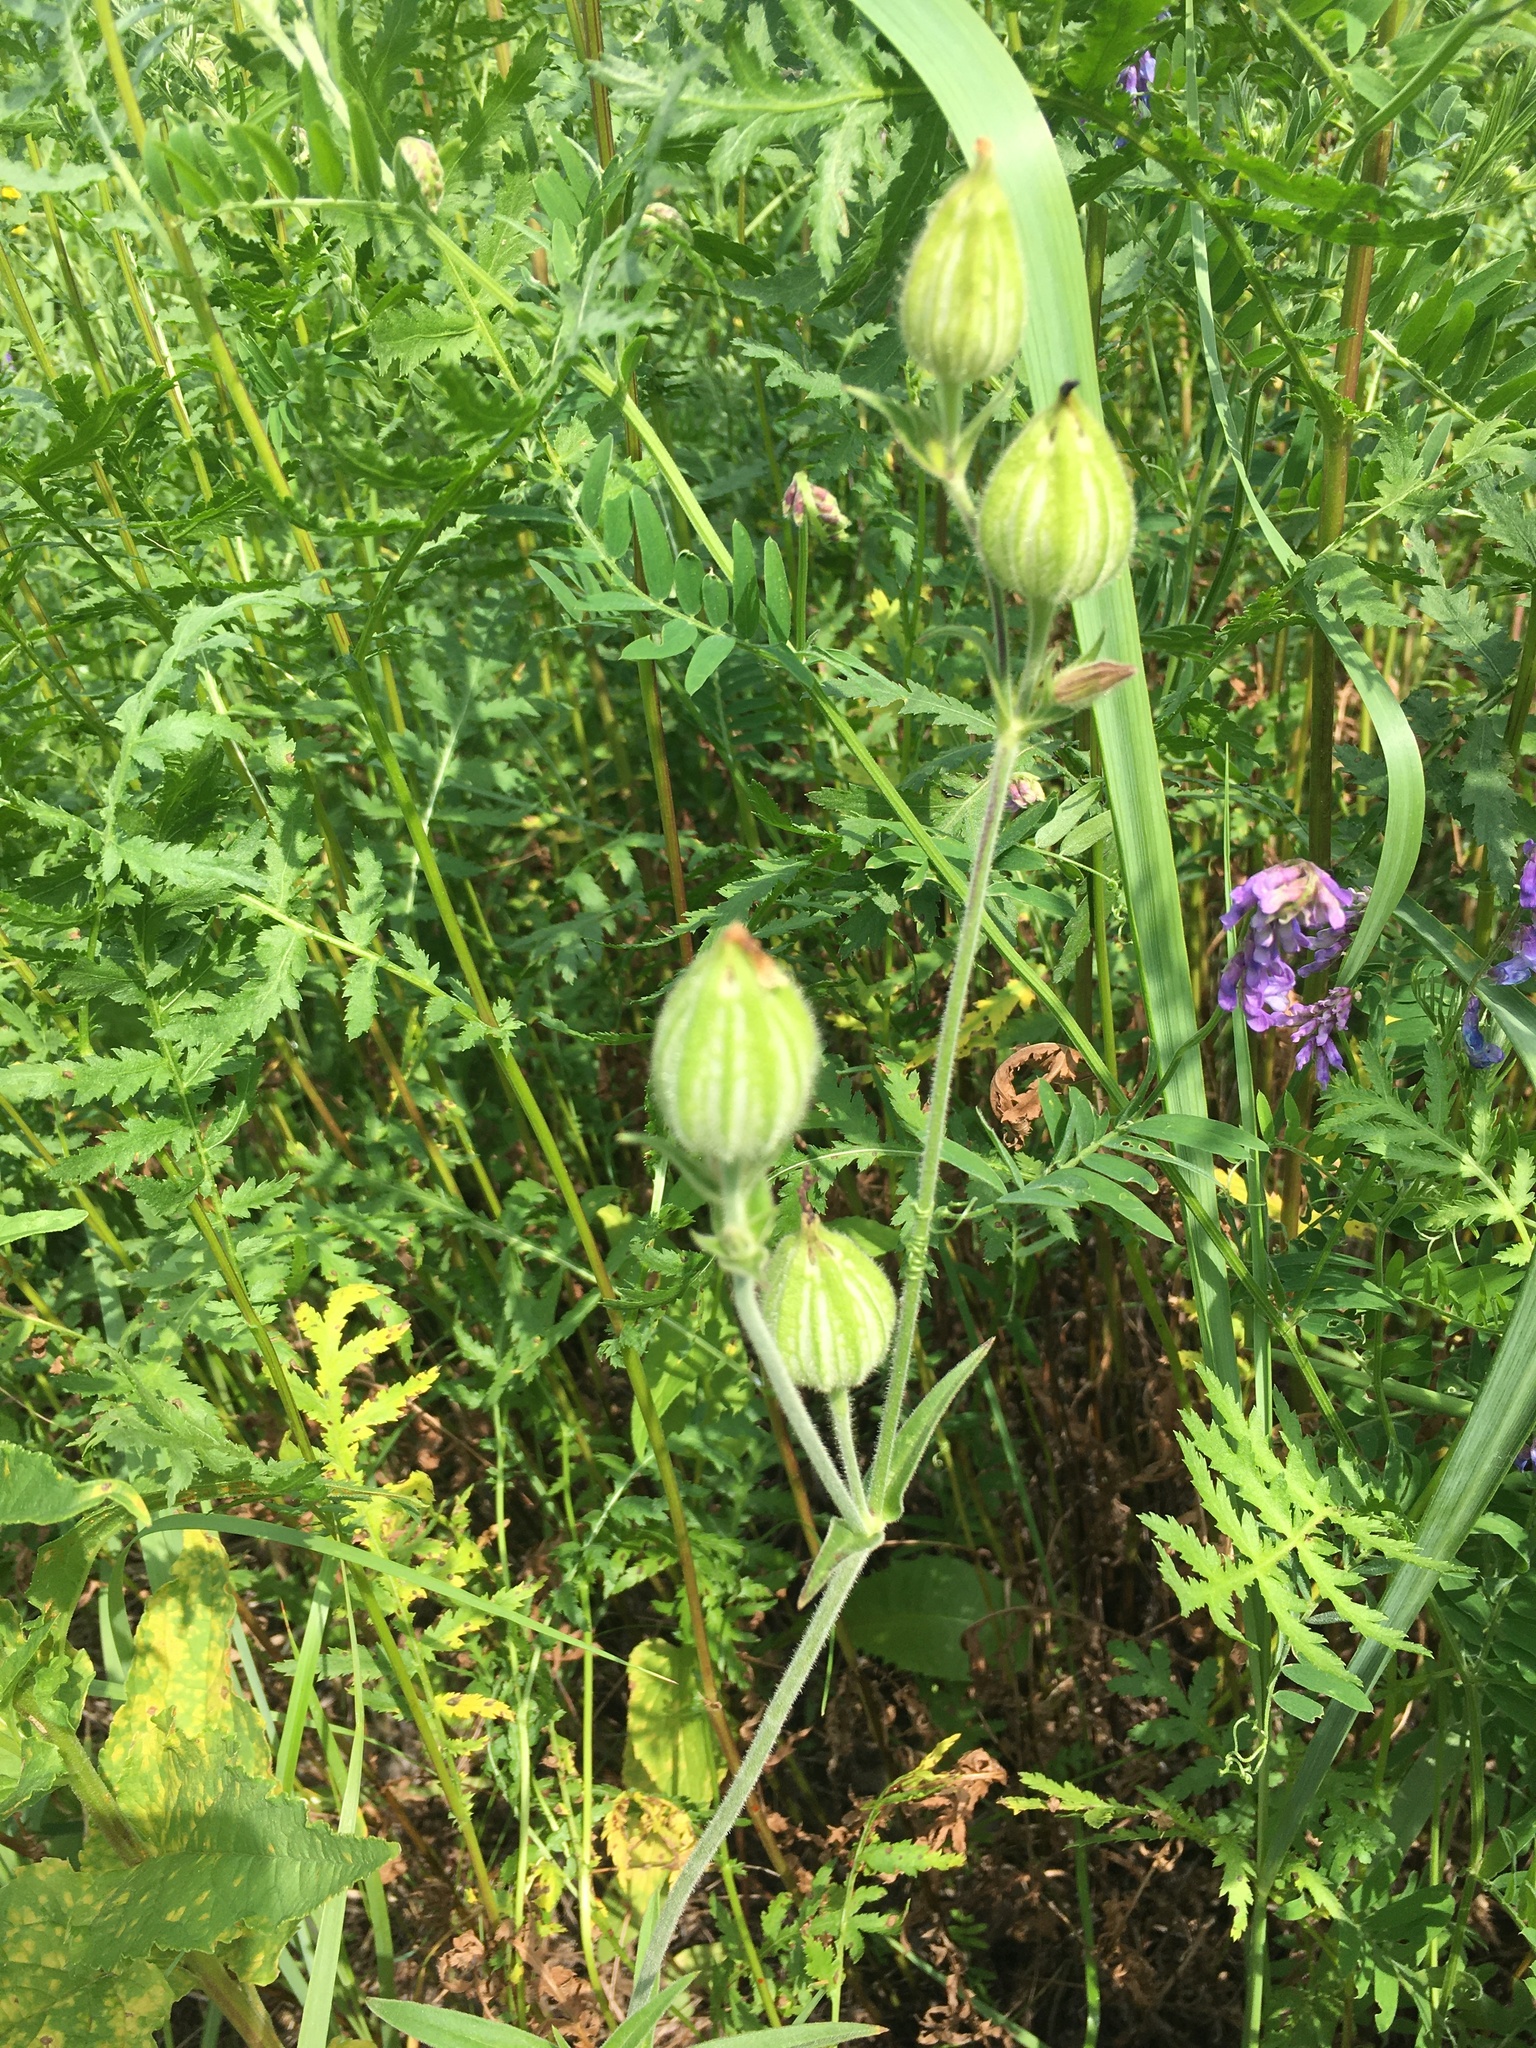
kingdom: Plantae
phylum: Tracheophyta
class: Magnoliopsida
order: Caryophyllales
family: Caryophyllaceae
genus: Silene
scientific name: Silene latifolia
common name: White campion
